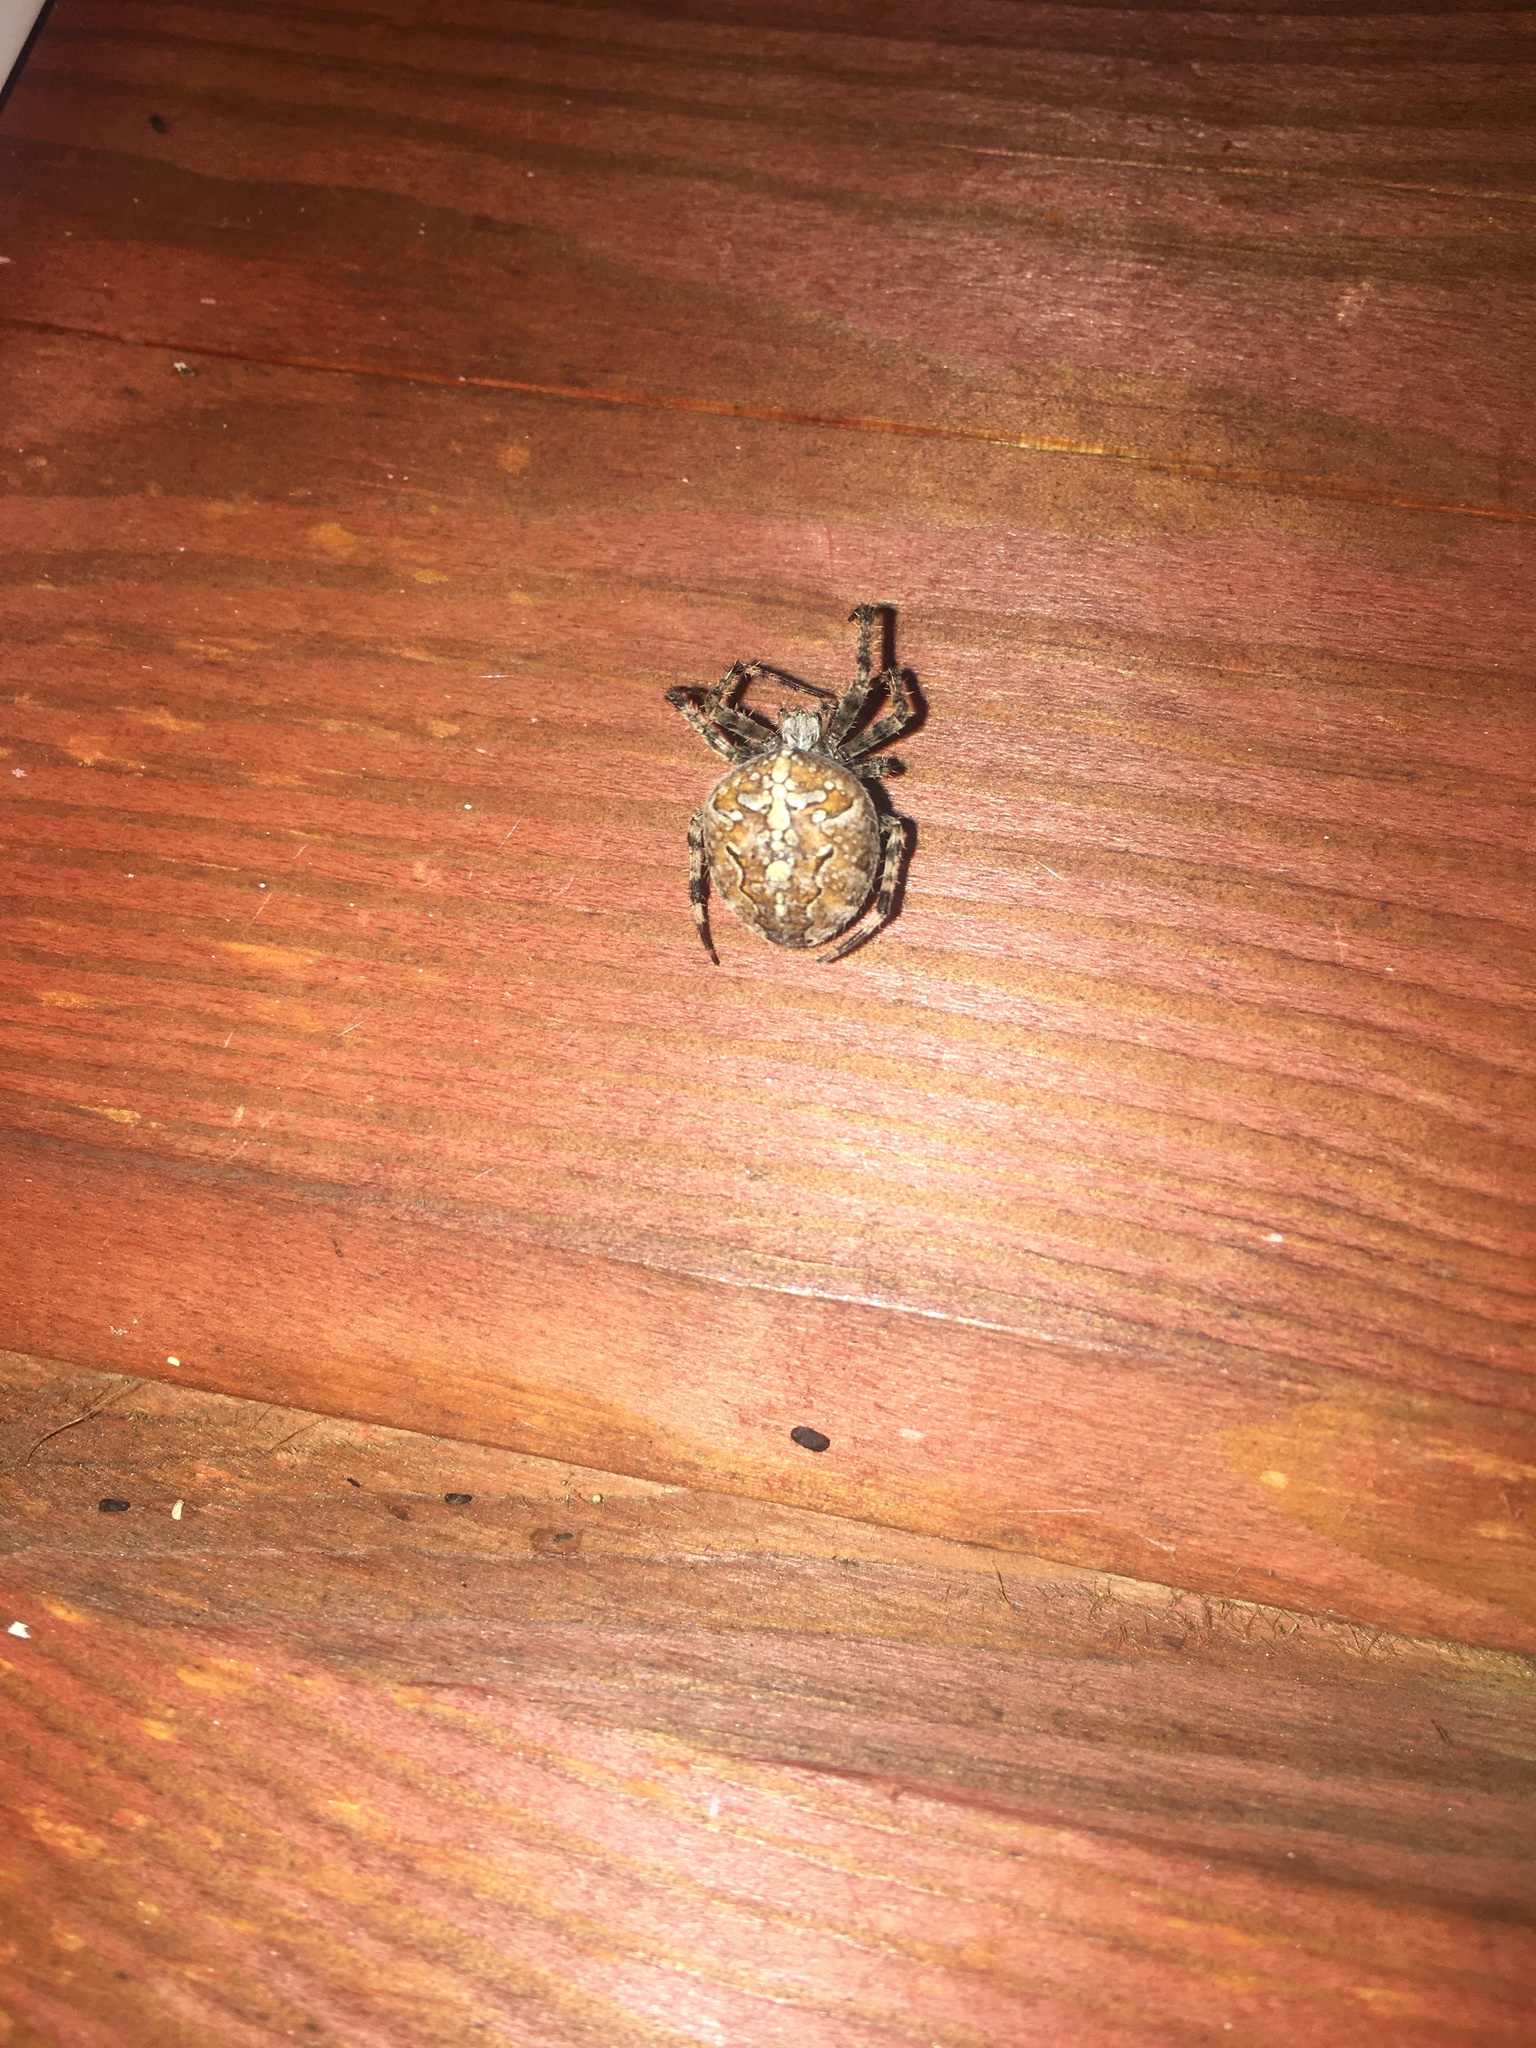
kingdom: Animalia
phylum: Arthropoda
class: Arachnida
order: Araneae
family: Araneidae
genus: Araneus
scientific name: Araneus diadematus
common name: Cross orbweaver
